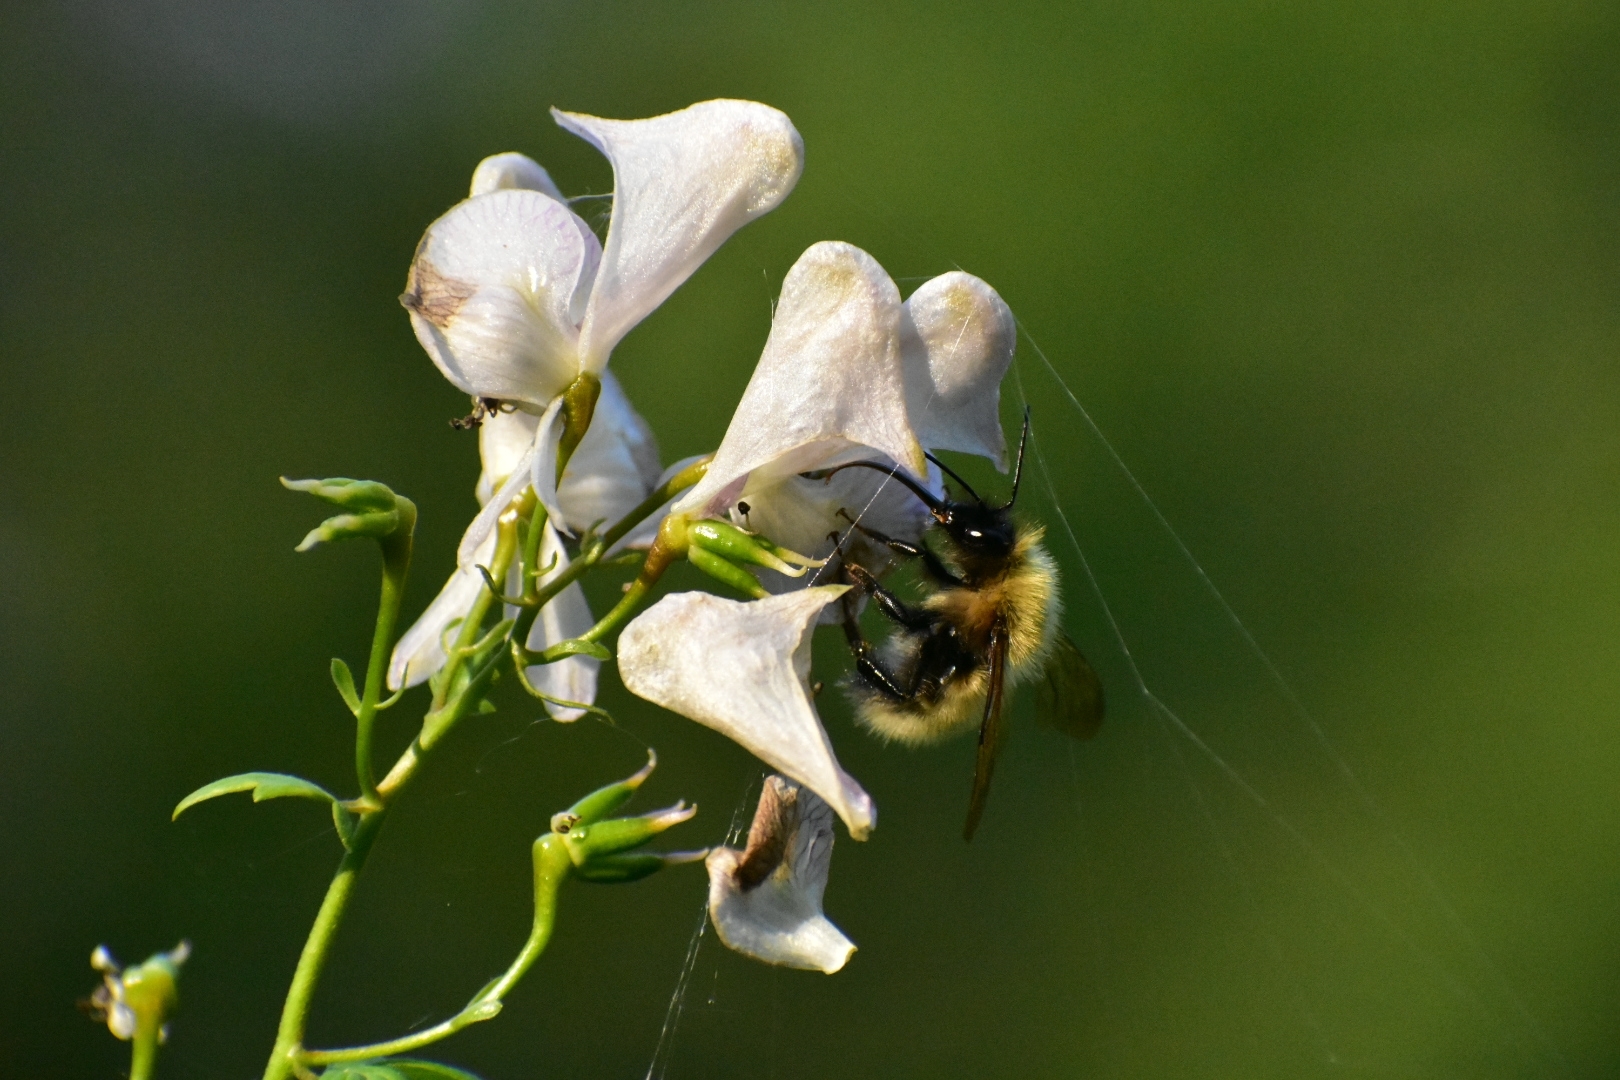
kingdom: Animalia
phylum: Arthropoda
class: Insecta
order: Hymenoptera
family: Apidae
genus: Bombus
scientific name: Bombus consobrinus
